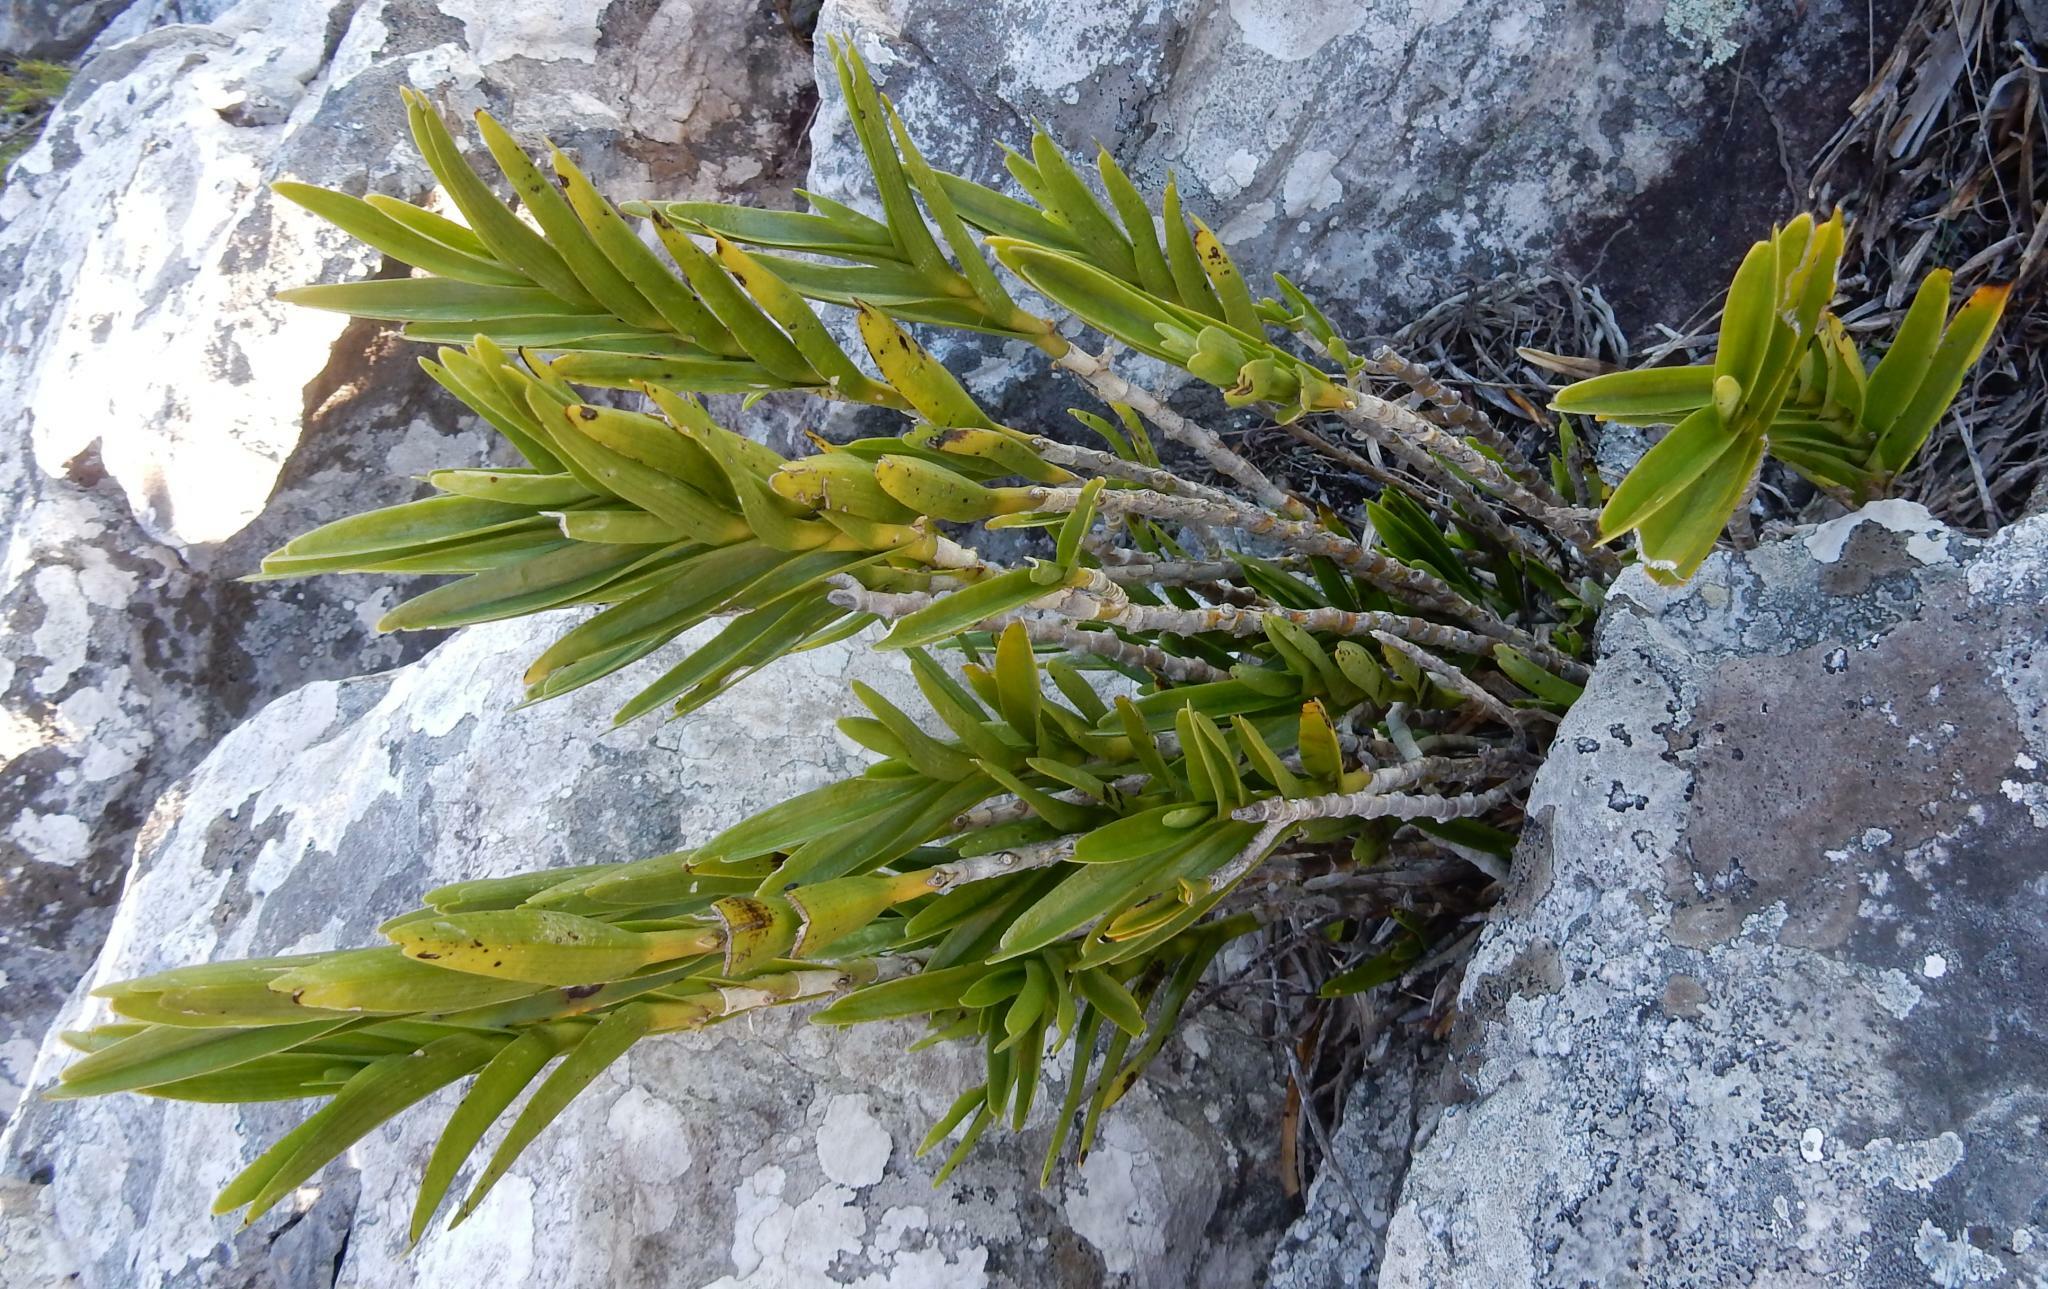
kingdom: Plantae
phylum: Tracheophyta
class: Liliopsida
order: Asparagales
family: Orchidaceae
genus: Tridactyle
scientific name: Tridactyle bicaudata
